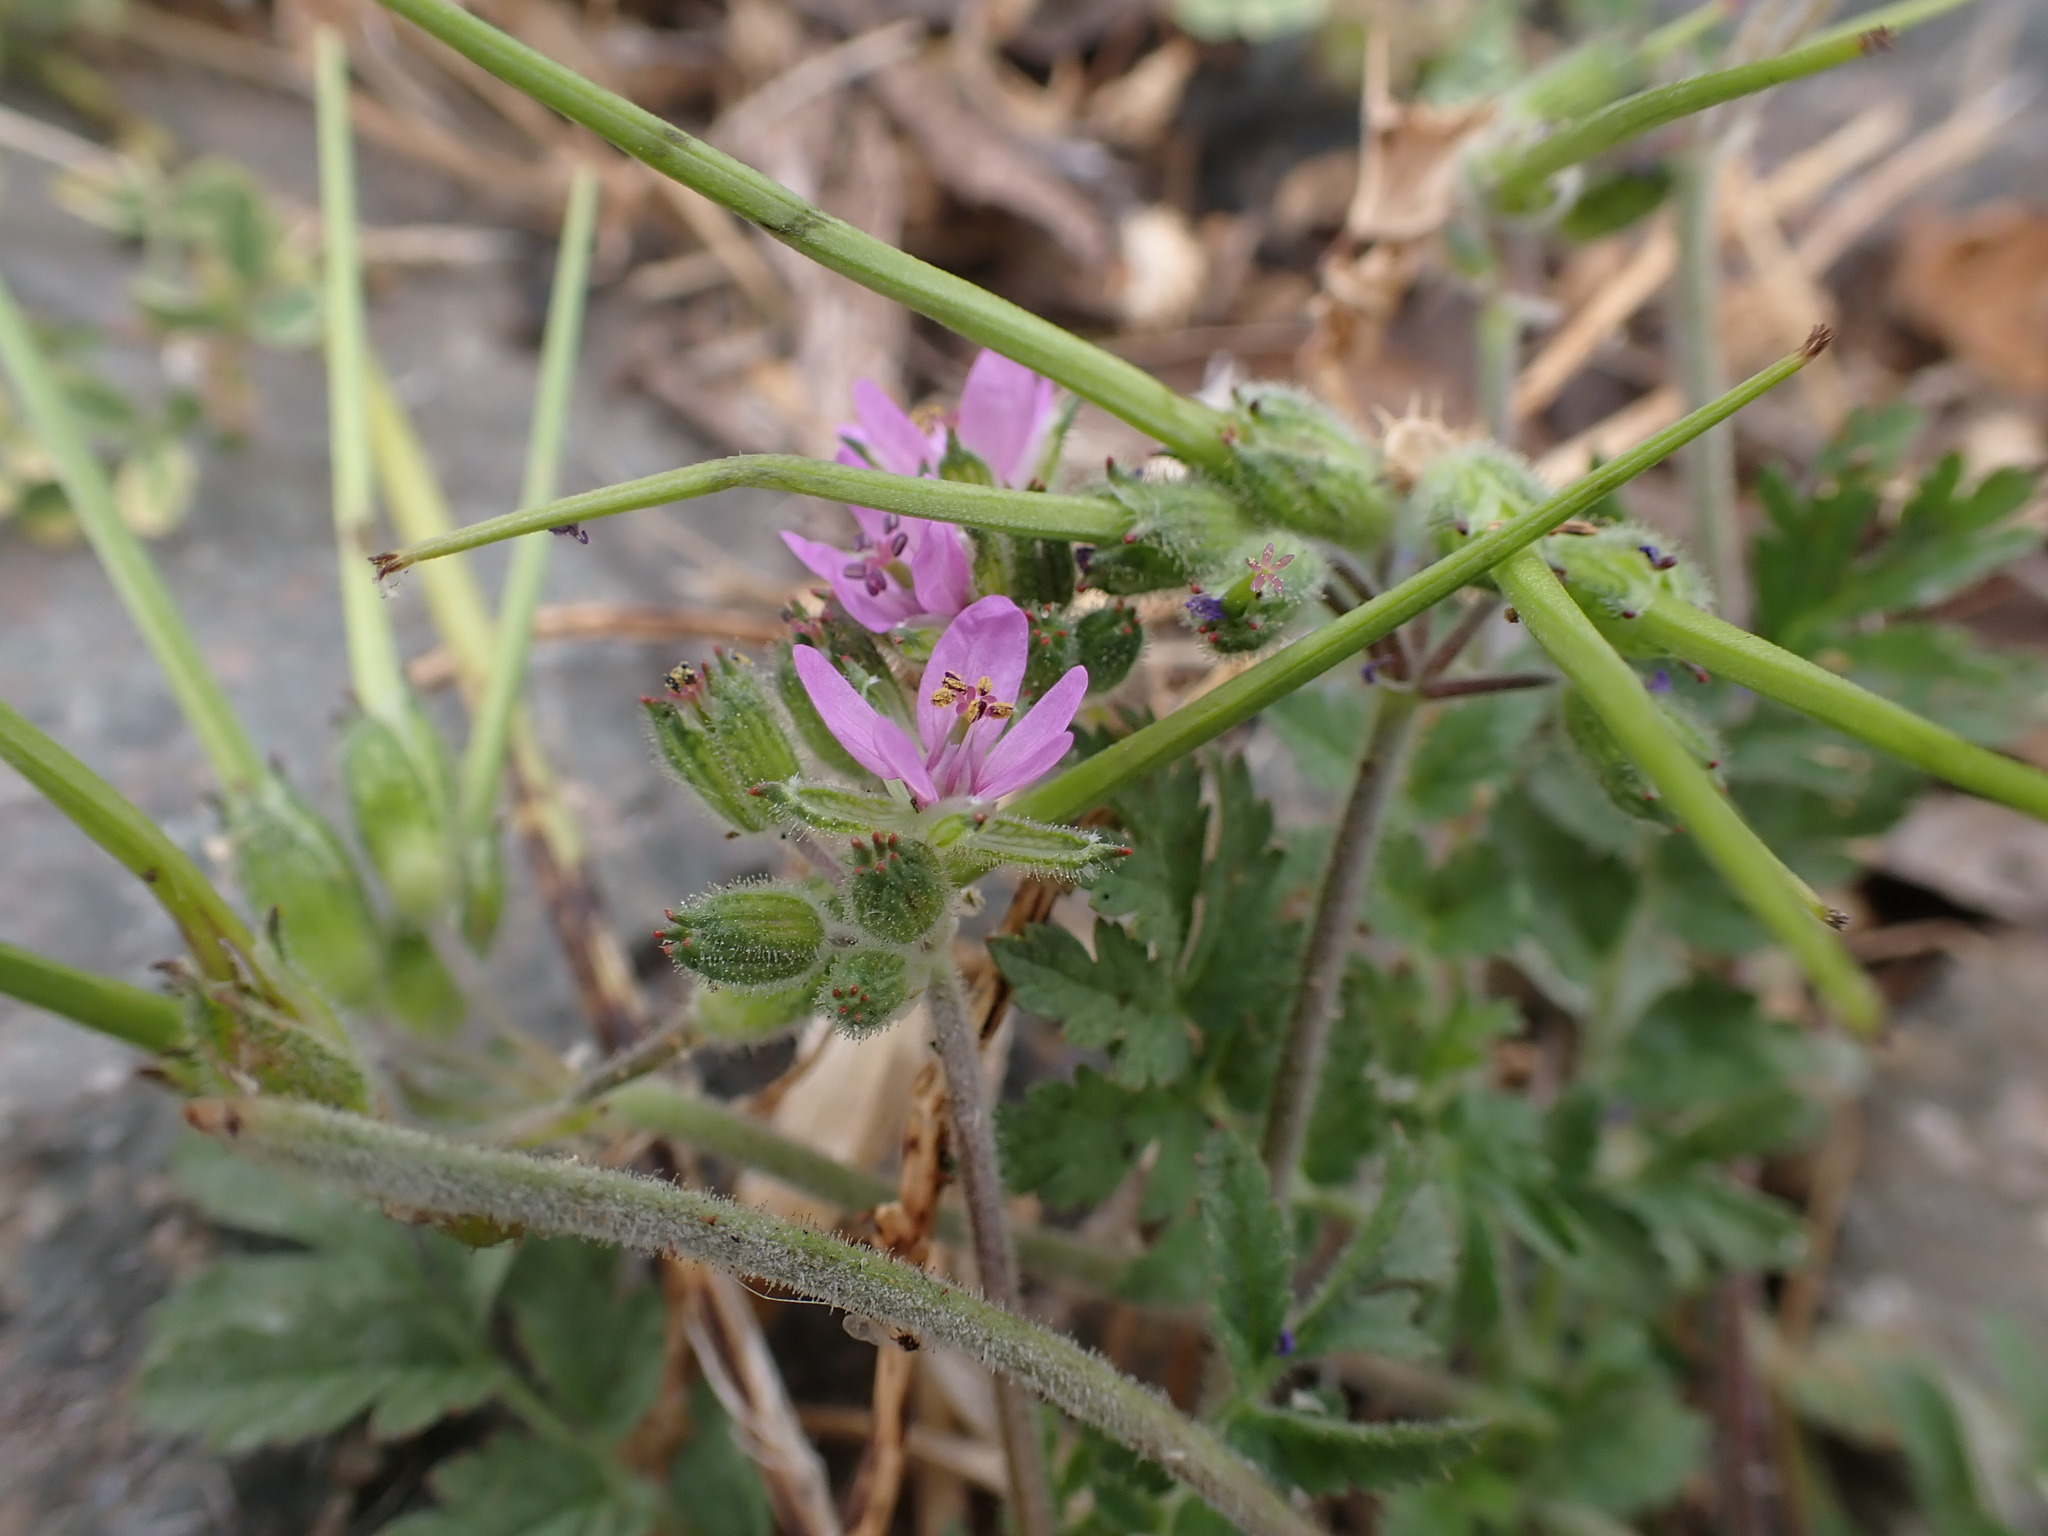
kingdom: Plantae
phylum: Tracheophyta
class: Magnoliopsida
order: Geraniales
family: Geraniaceae
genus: Erodium
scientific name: Erodium moschatum
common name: Musk stork's-bill
